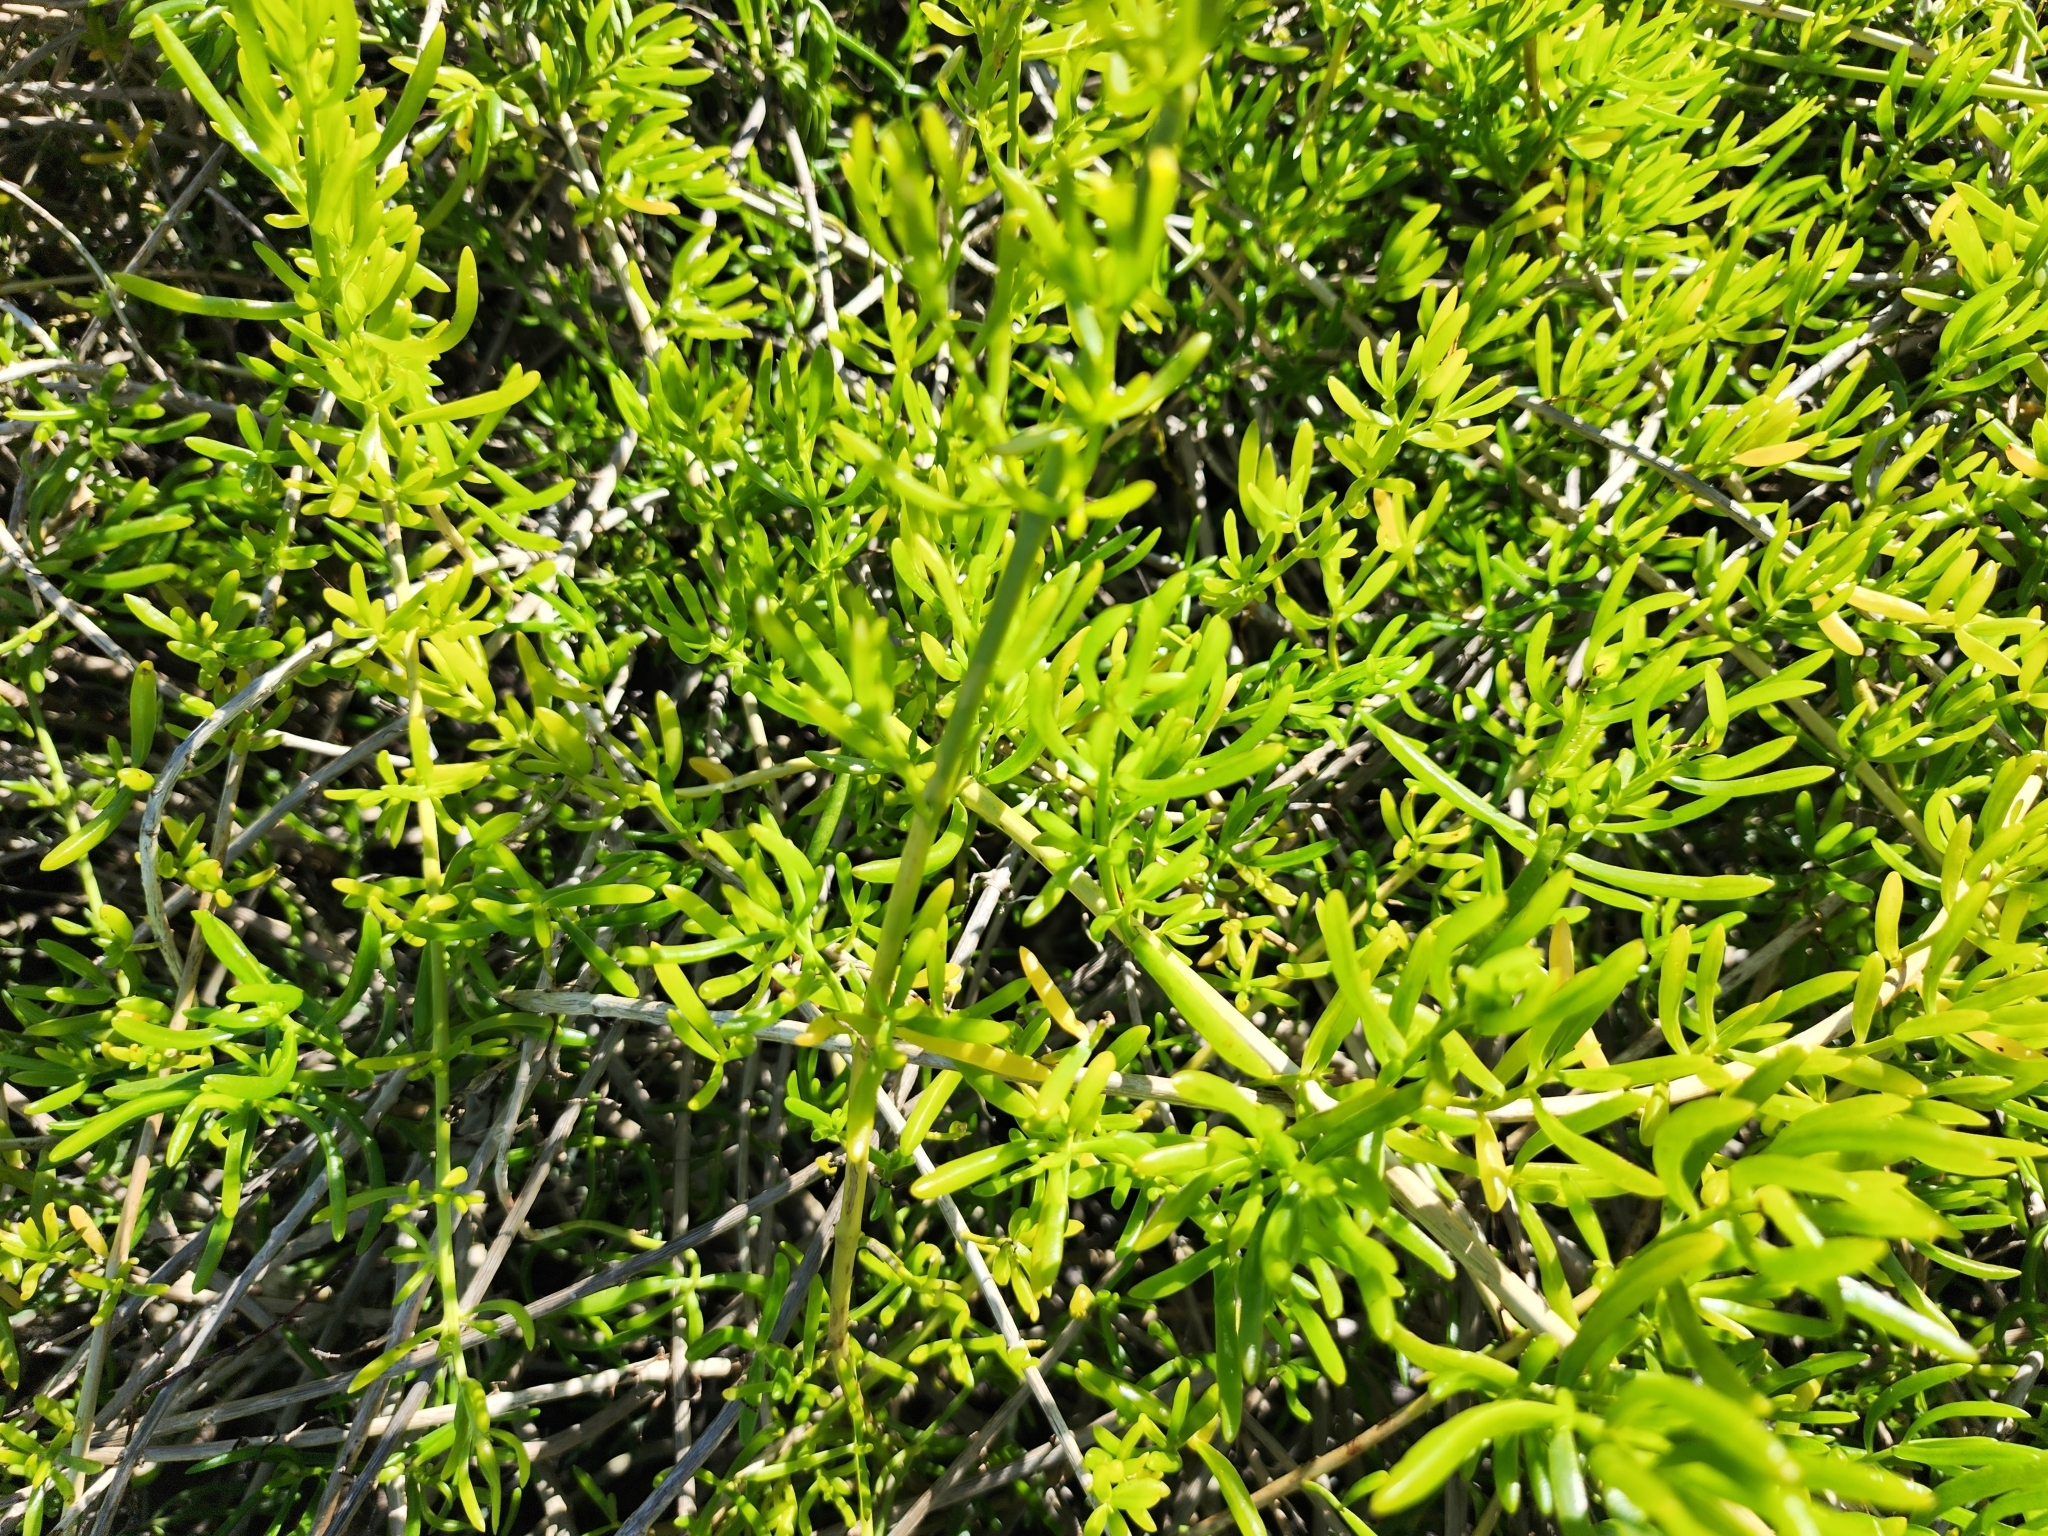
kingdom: Plantae
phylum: Tracheophyta
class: Magnoliopsida
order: Brassicales
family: Bataceae
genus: Batis
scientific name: Batis maritima
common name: Turtleweed
